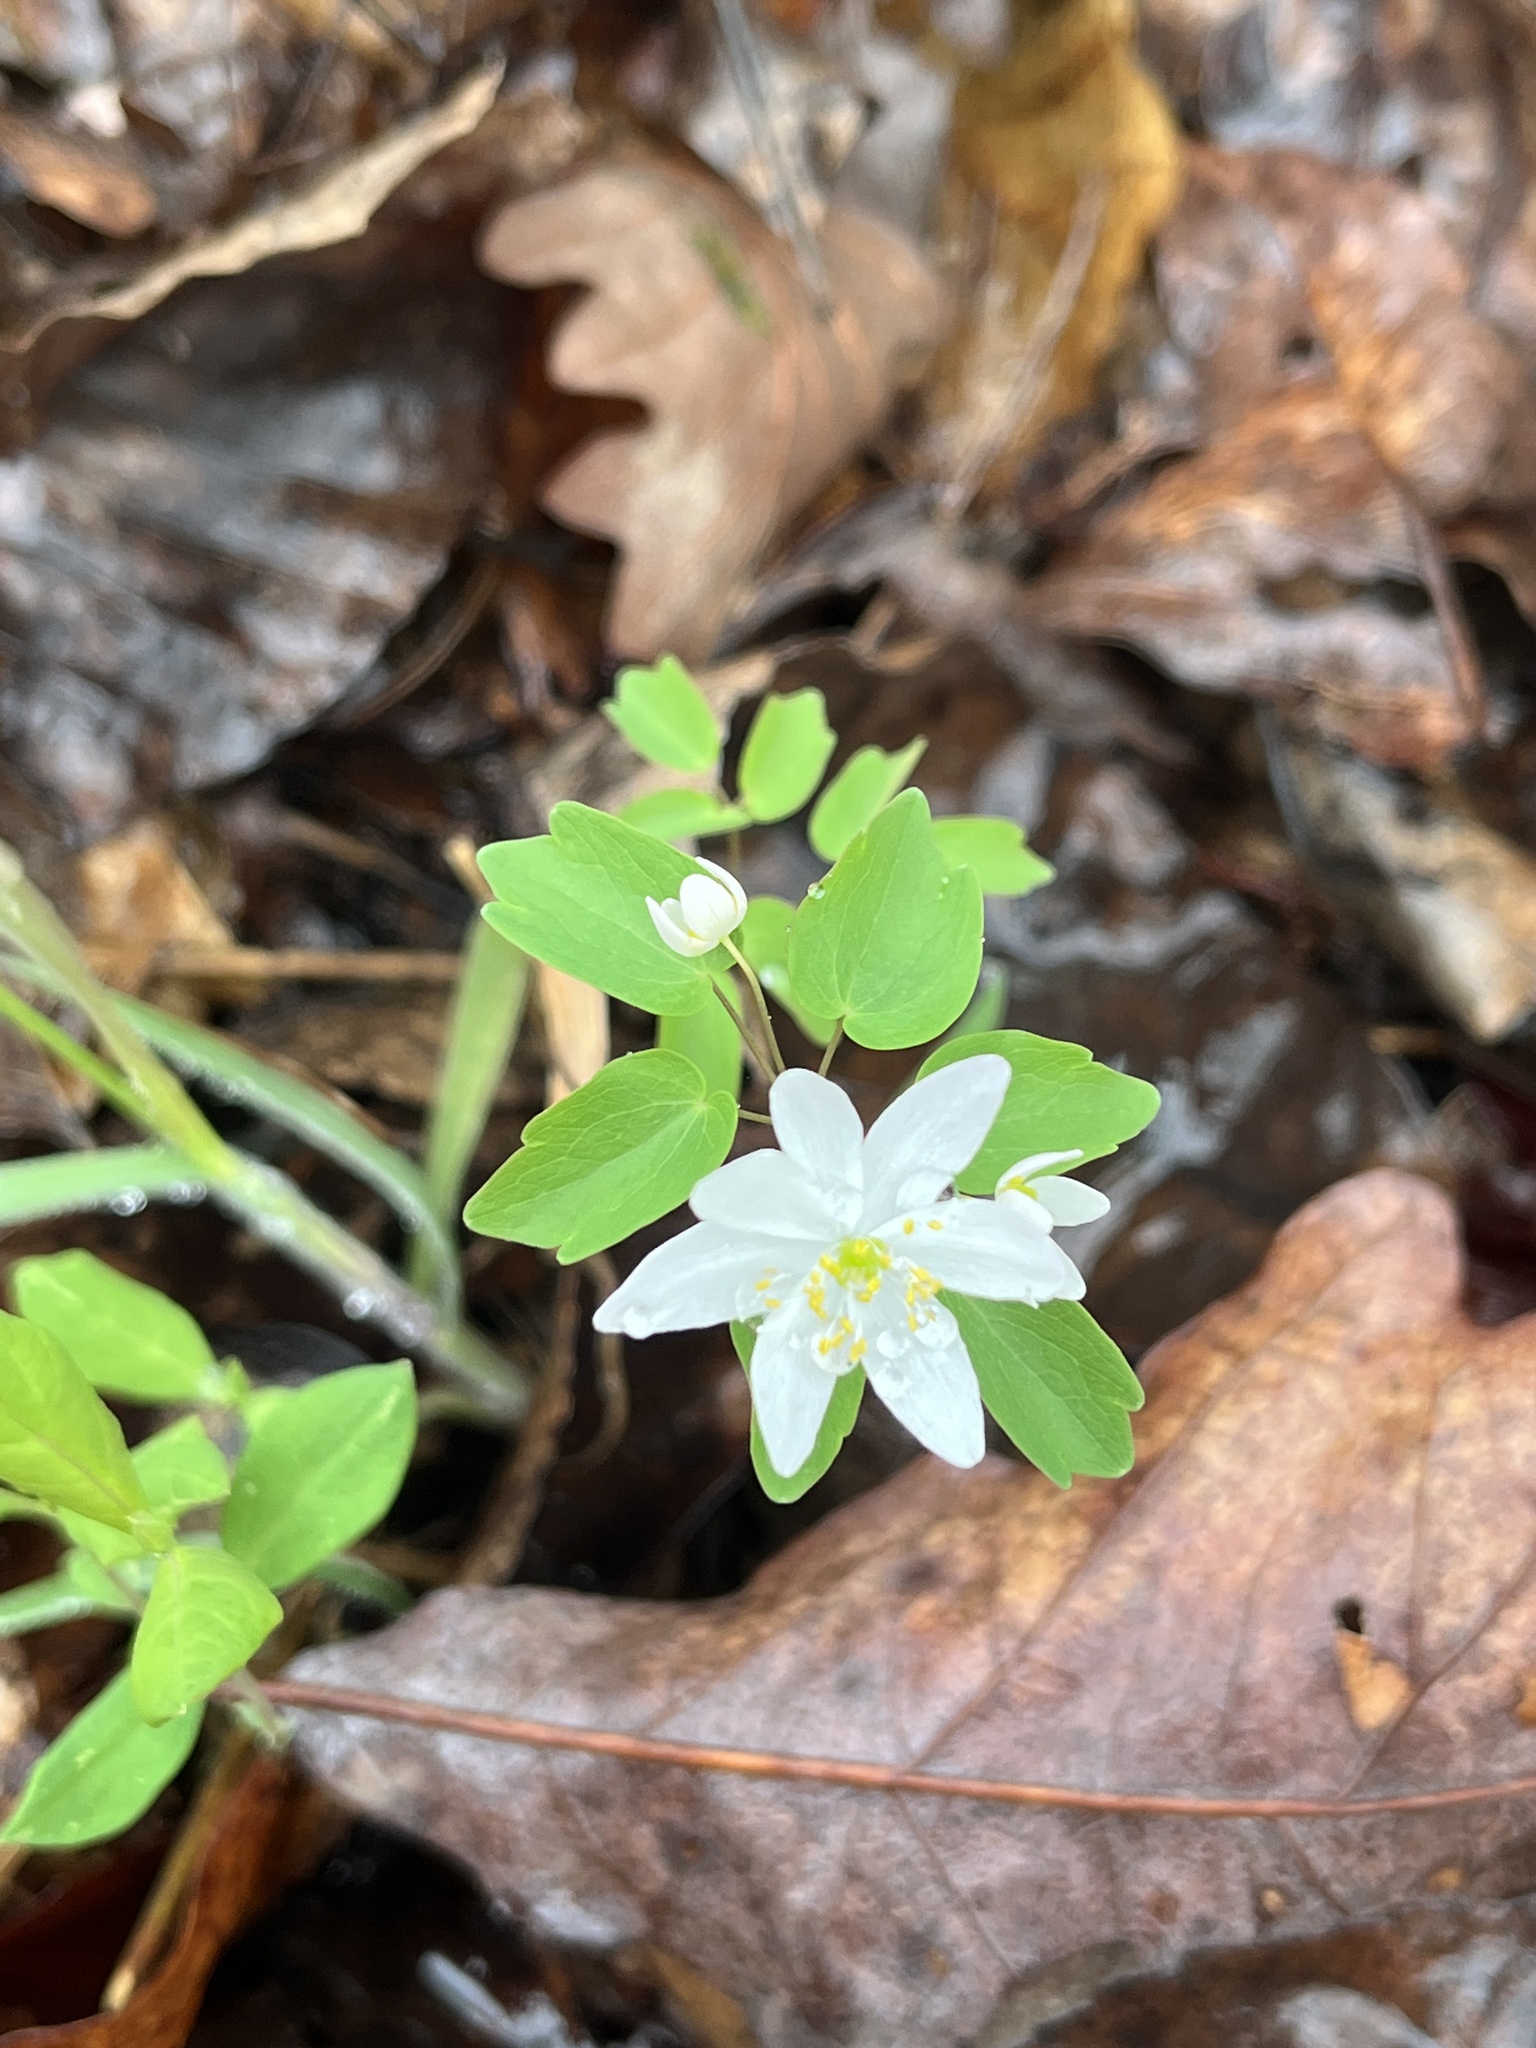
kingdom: Plantae
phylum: Tracheophyta
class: Magnoliopsida
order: Ranunculales
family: Ranunculaceae
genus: Thalictrum
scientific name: Thalictrum thalictroides
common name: Rue-anemone
